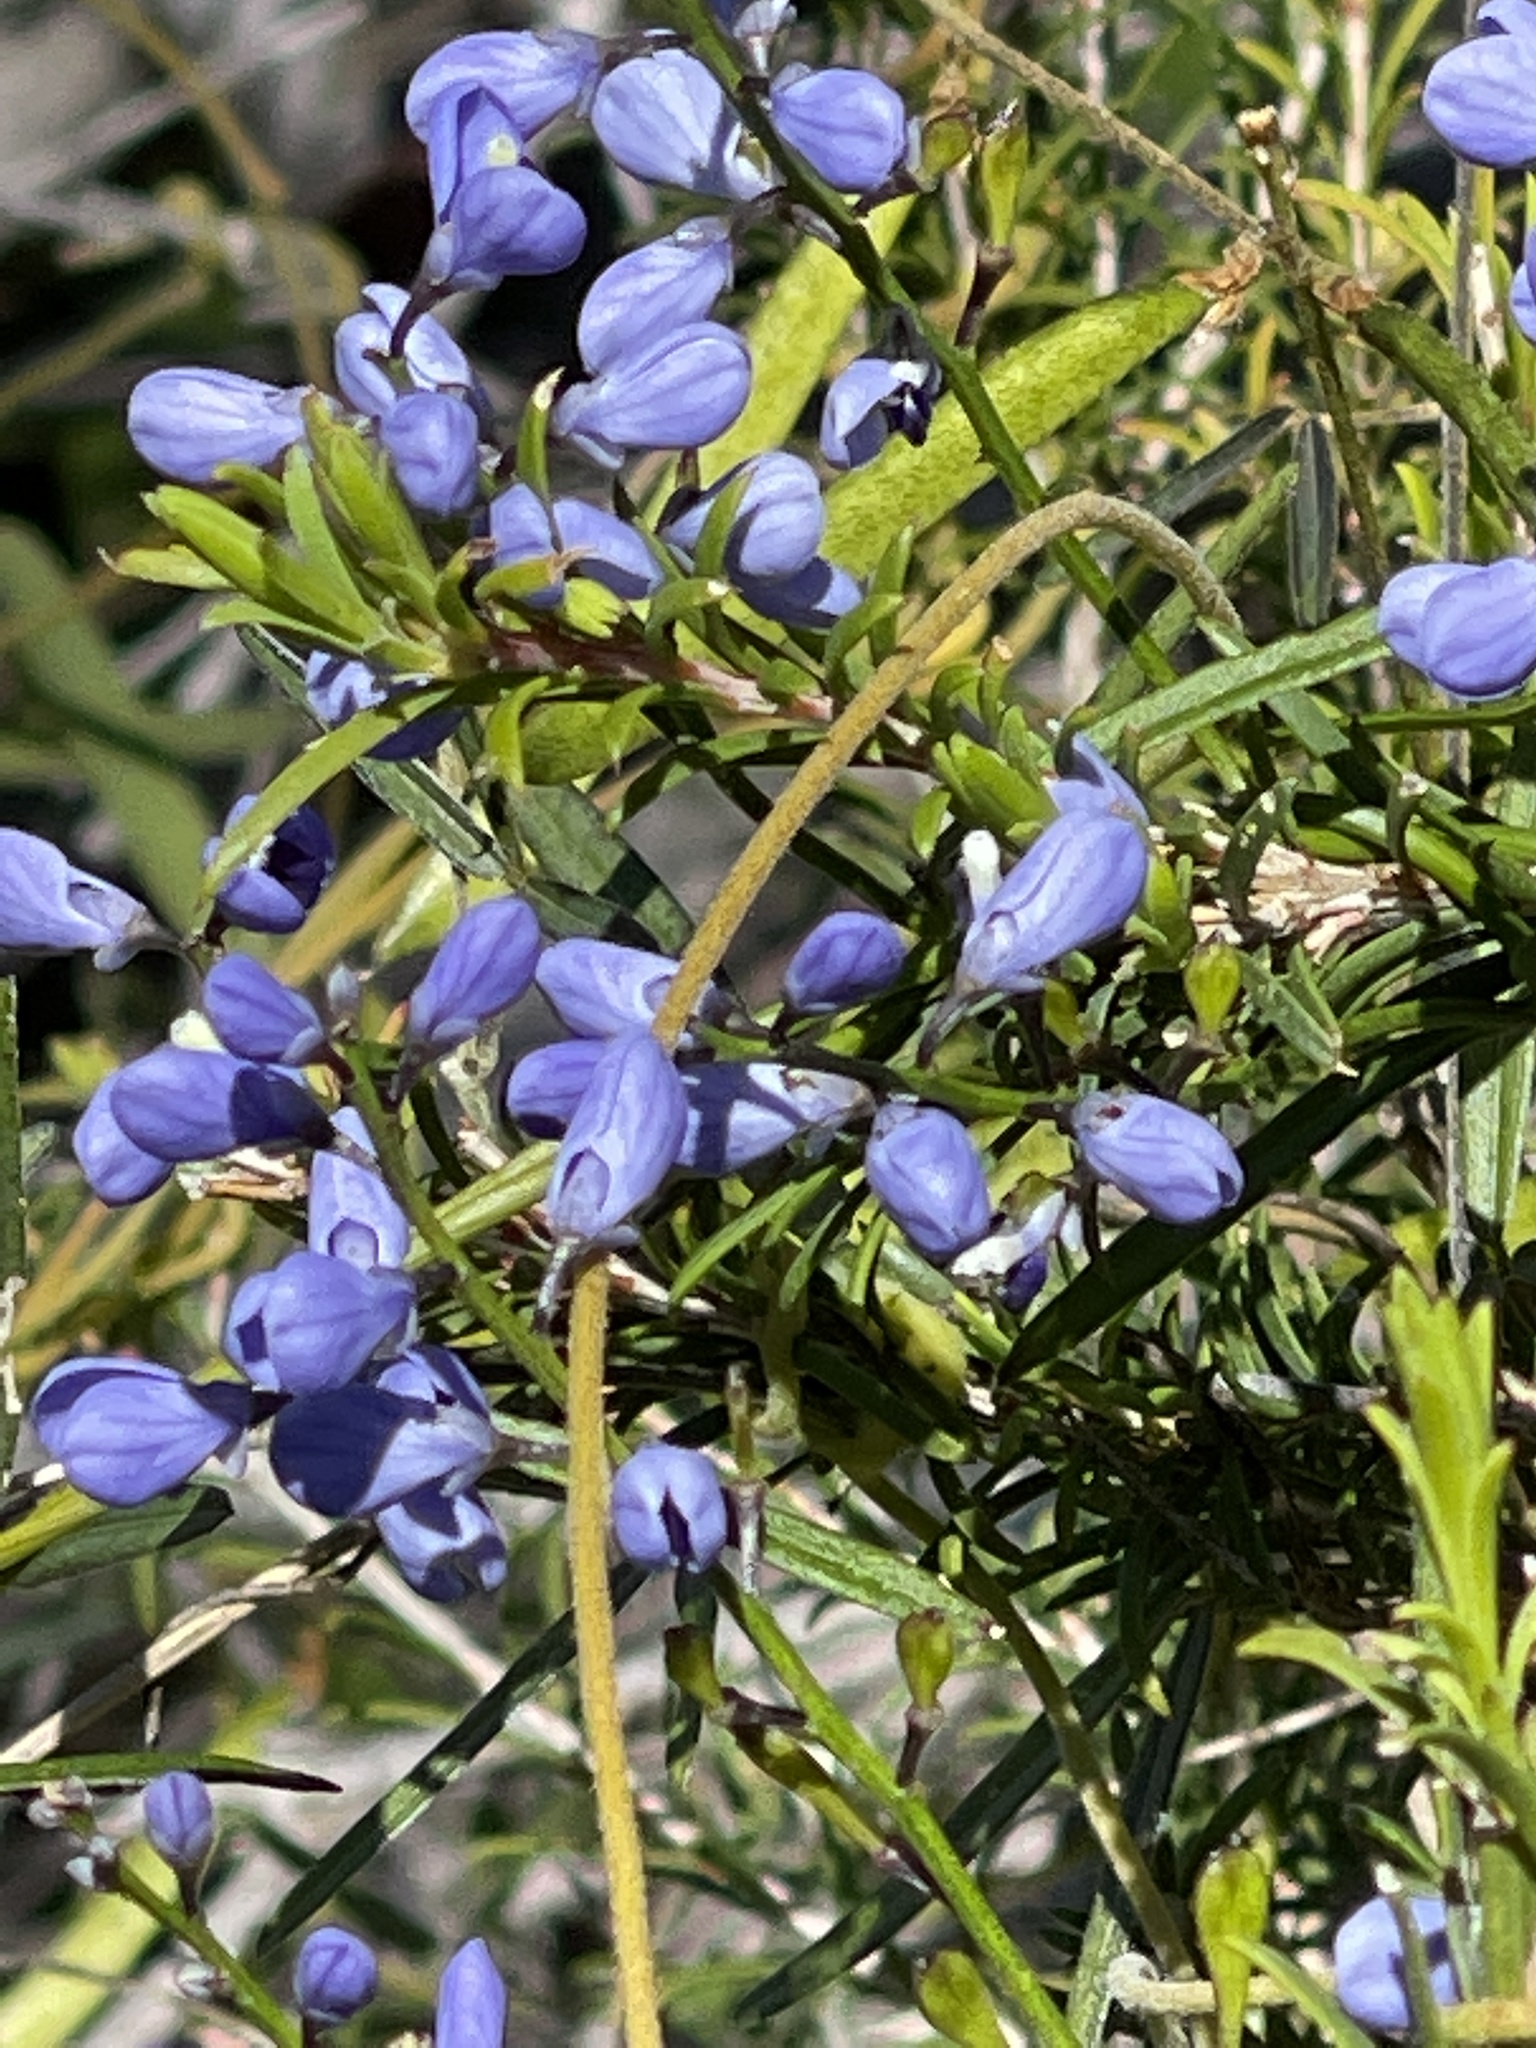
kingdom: Plantae
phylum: Tracheophyta
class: Magnoliopsida
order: Fabales
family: Polygalaceae
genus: Comesperma
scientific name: Comesperma volubile
